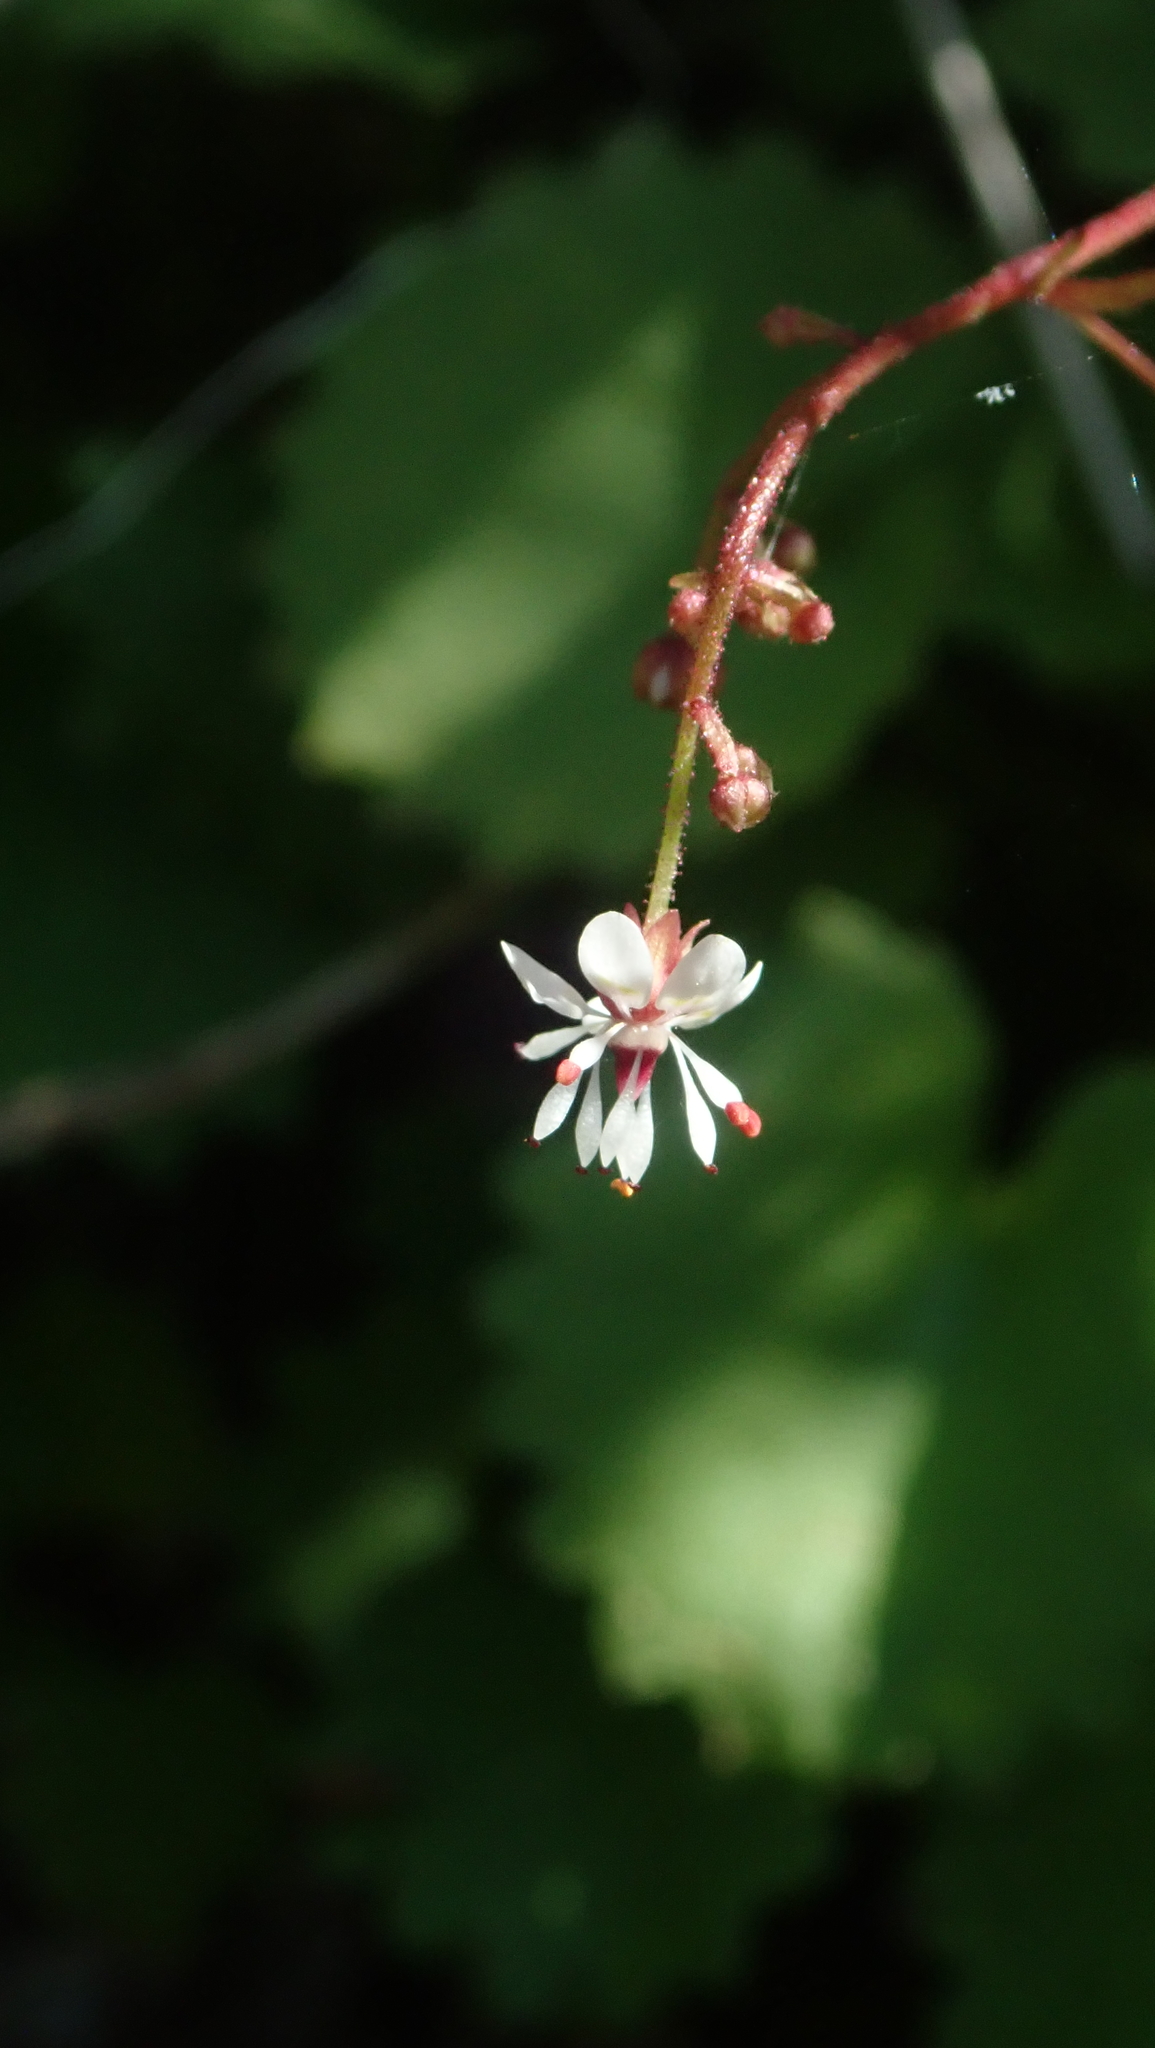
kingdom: Plantae
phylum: Tracheophyta
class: Magnoliopsida
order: Saxifragales
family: Saxifragaceae
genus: Micranthes
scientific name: Micranthes odontoloma
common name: Brook saxifrage
